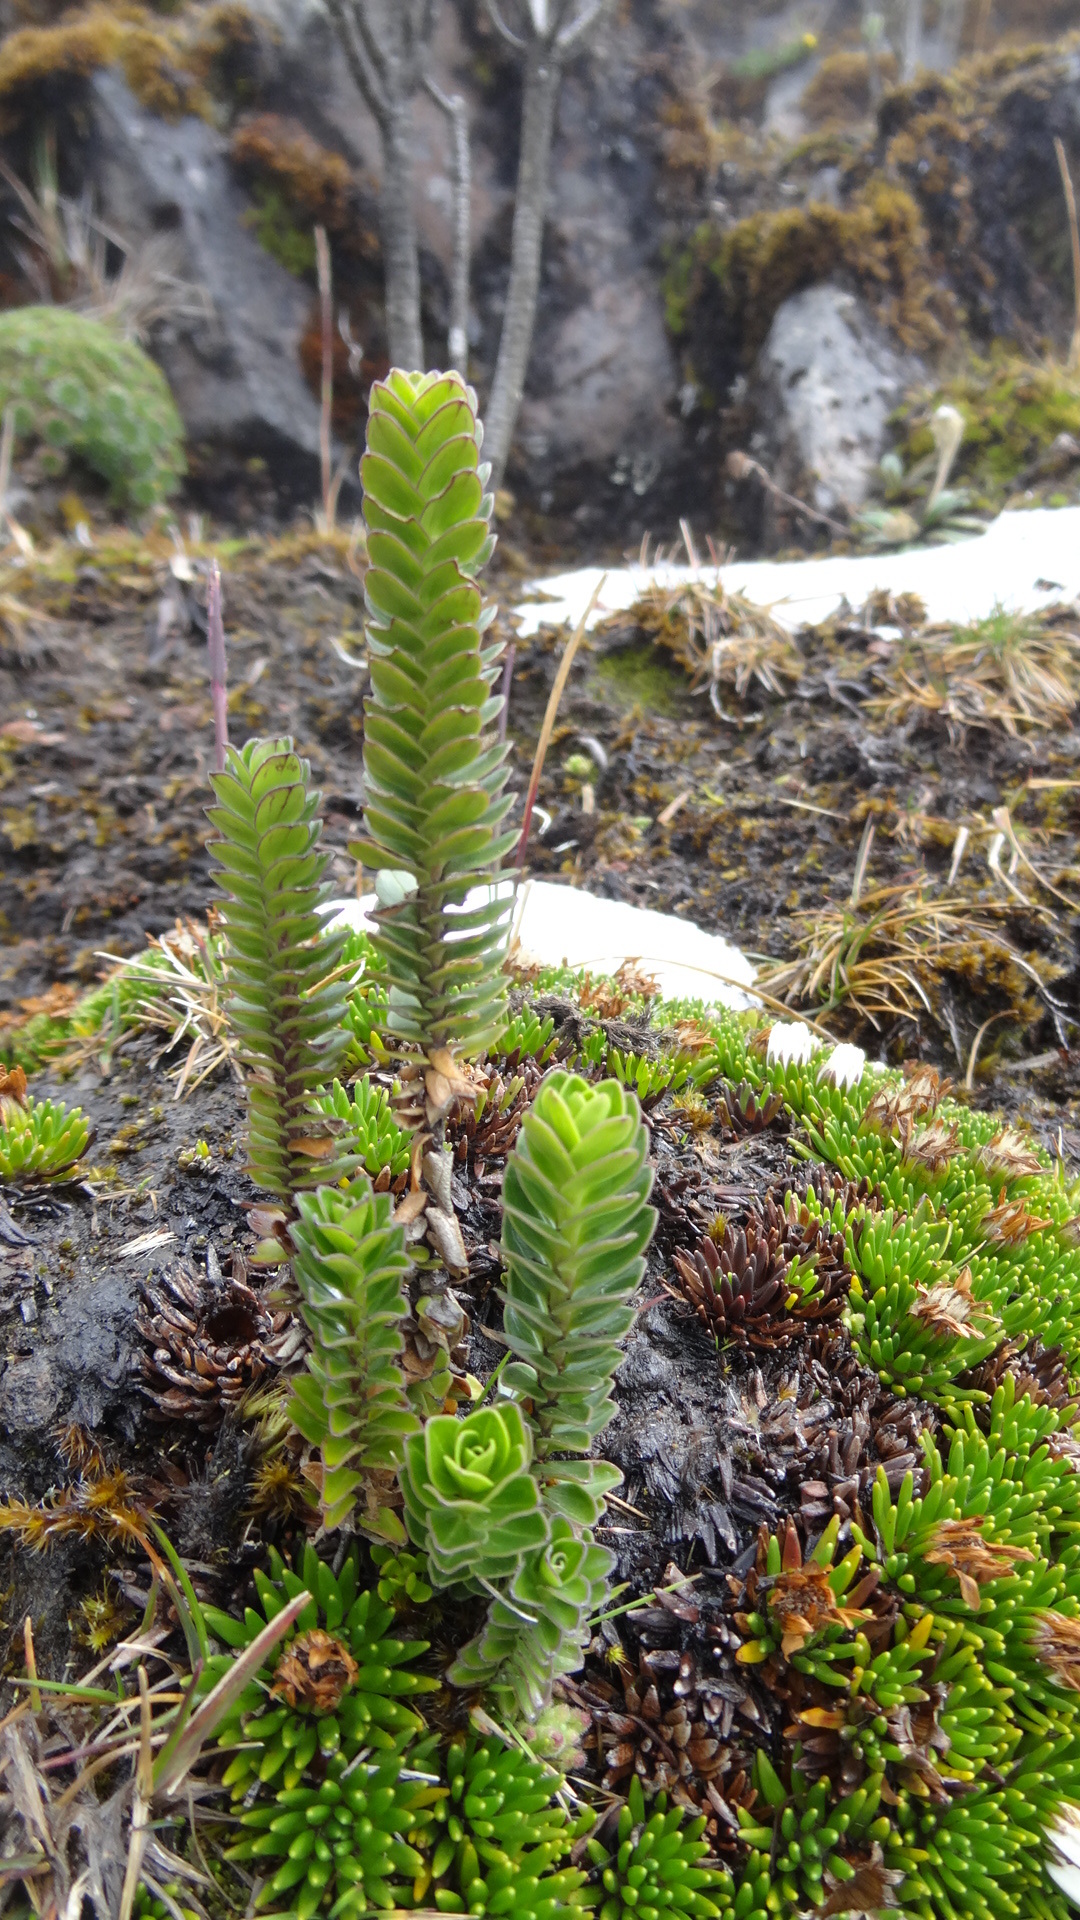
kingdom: Plantae
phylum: Tracheophyta
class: Magnoliopsida
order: Dipsacales
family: Caprifoliaceae
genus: Valeriana
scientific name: Valeriana microphylla
